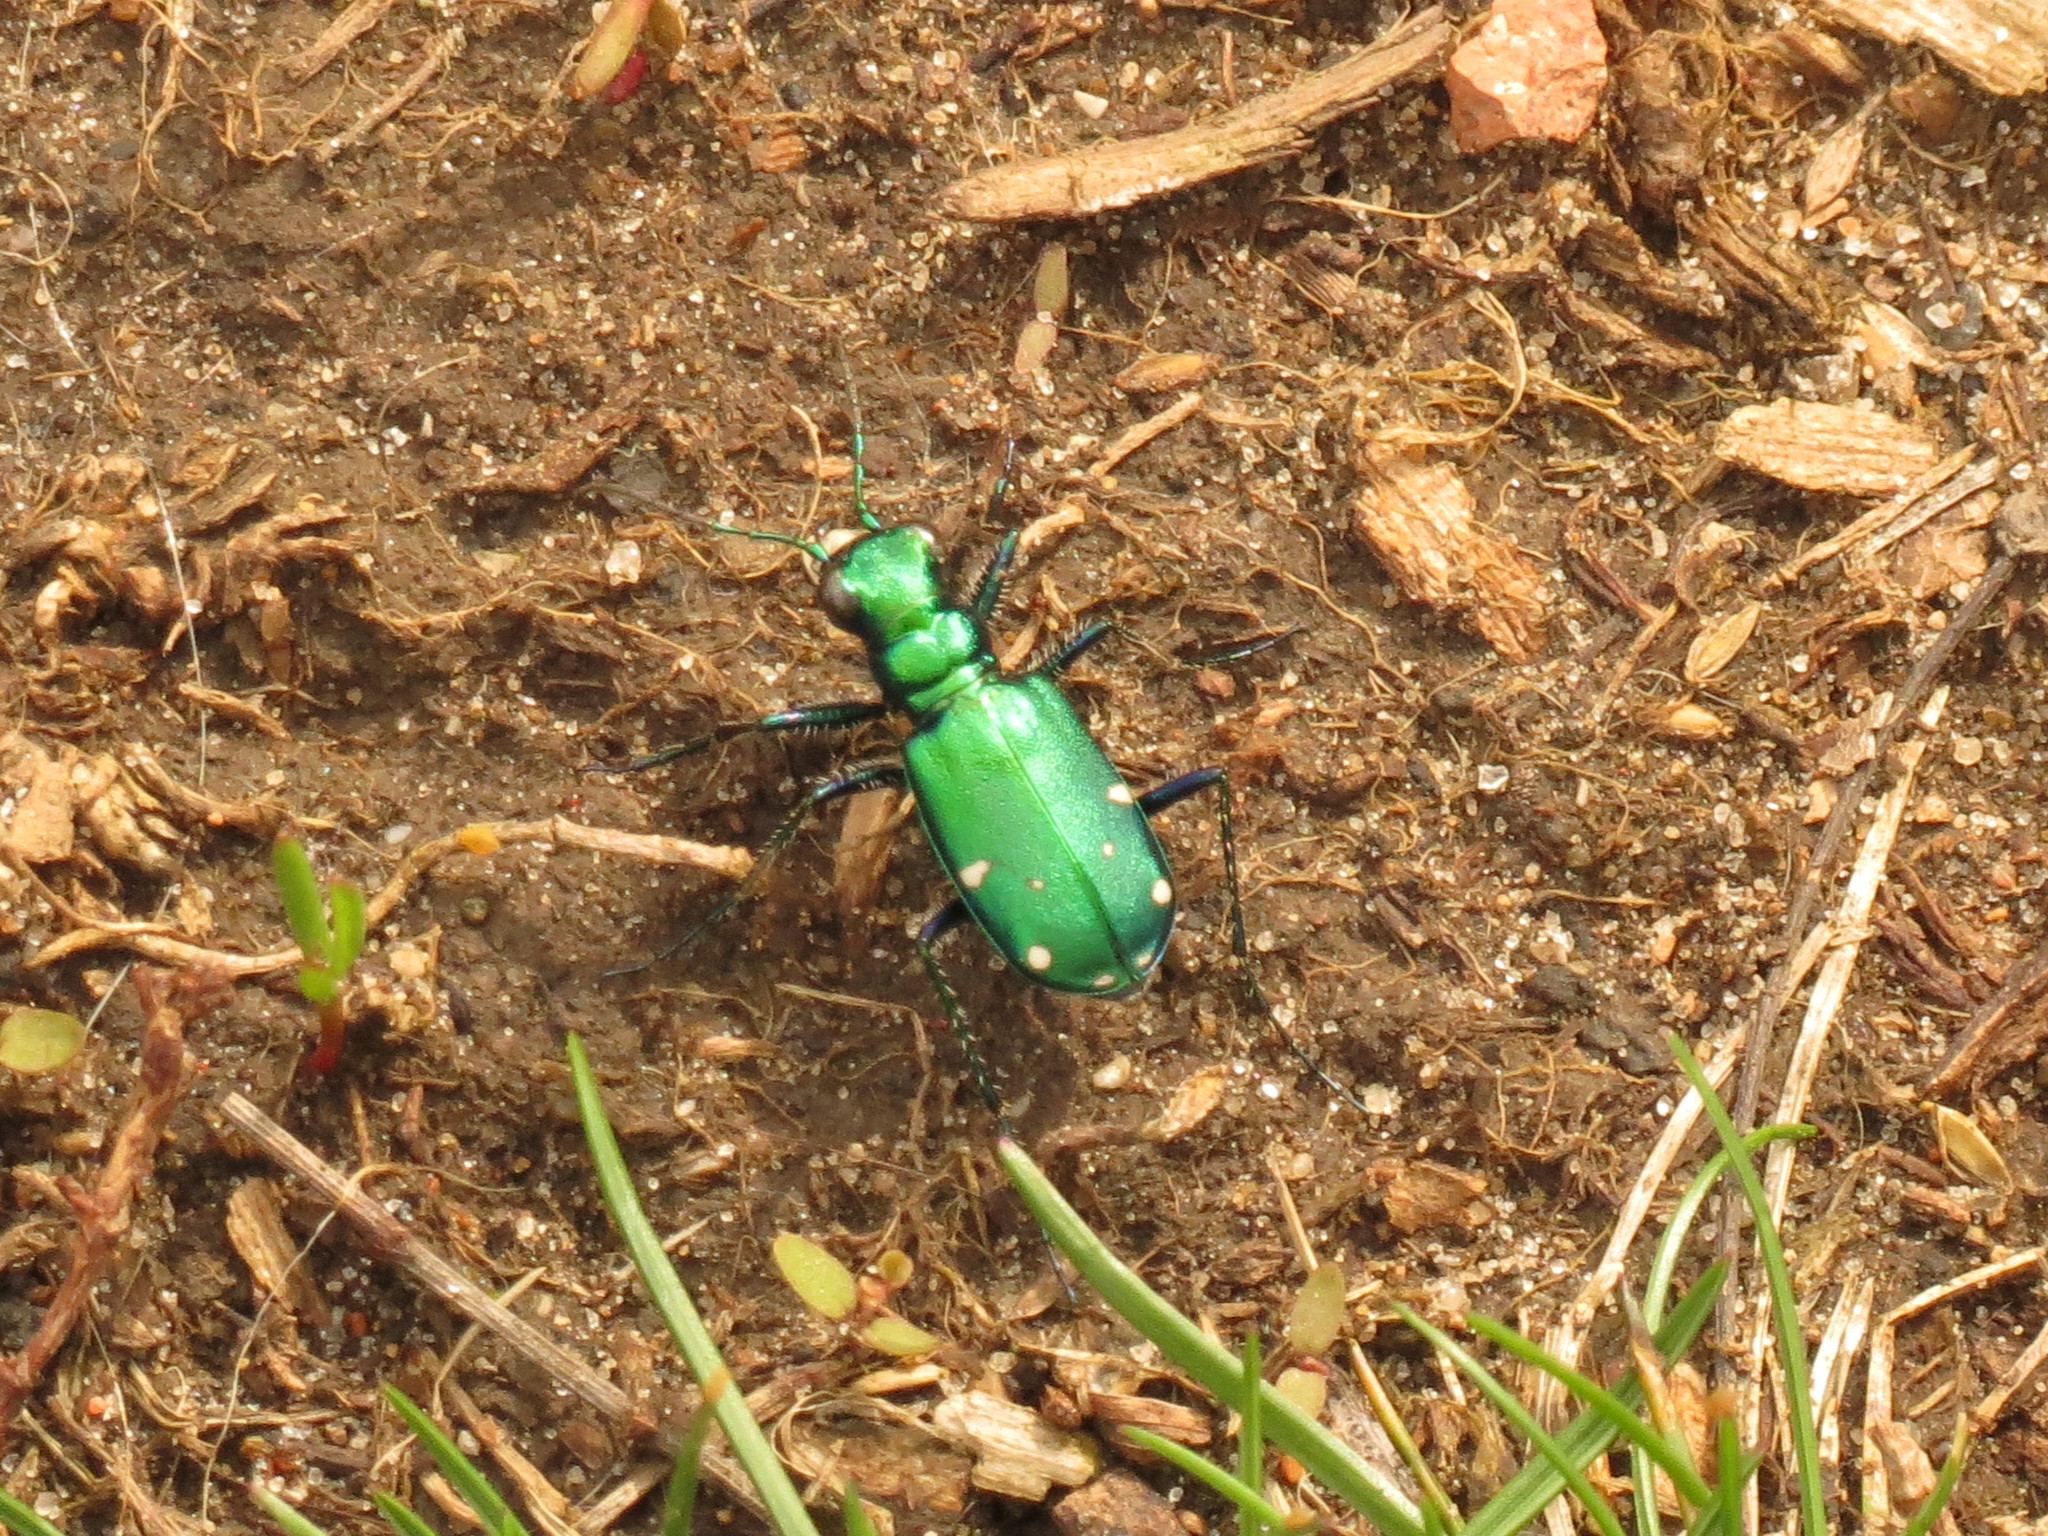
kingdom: Animalia
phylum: Arthropoda
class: Insecta
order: Coleoptera
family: Carabidae
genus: Cicindela
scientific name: Cicindela sexguttata
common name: Six-spotted tiger beetle
